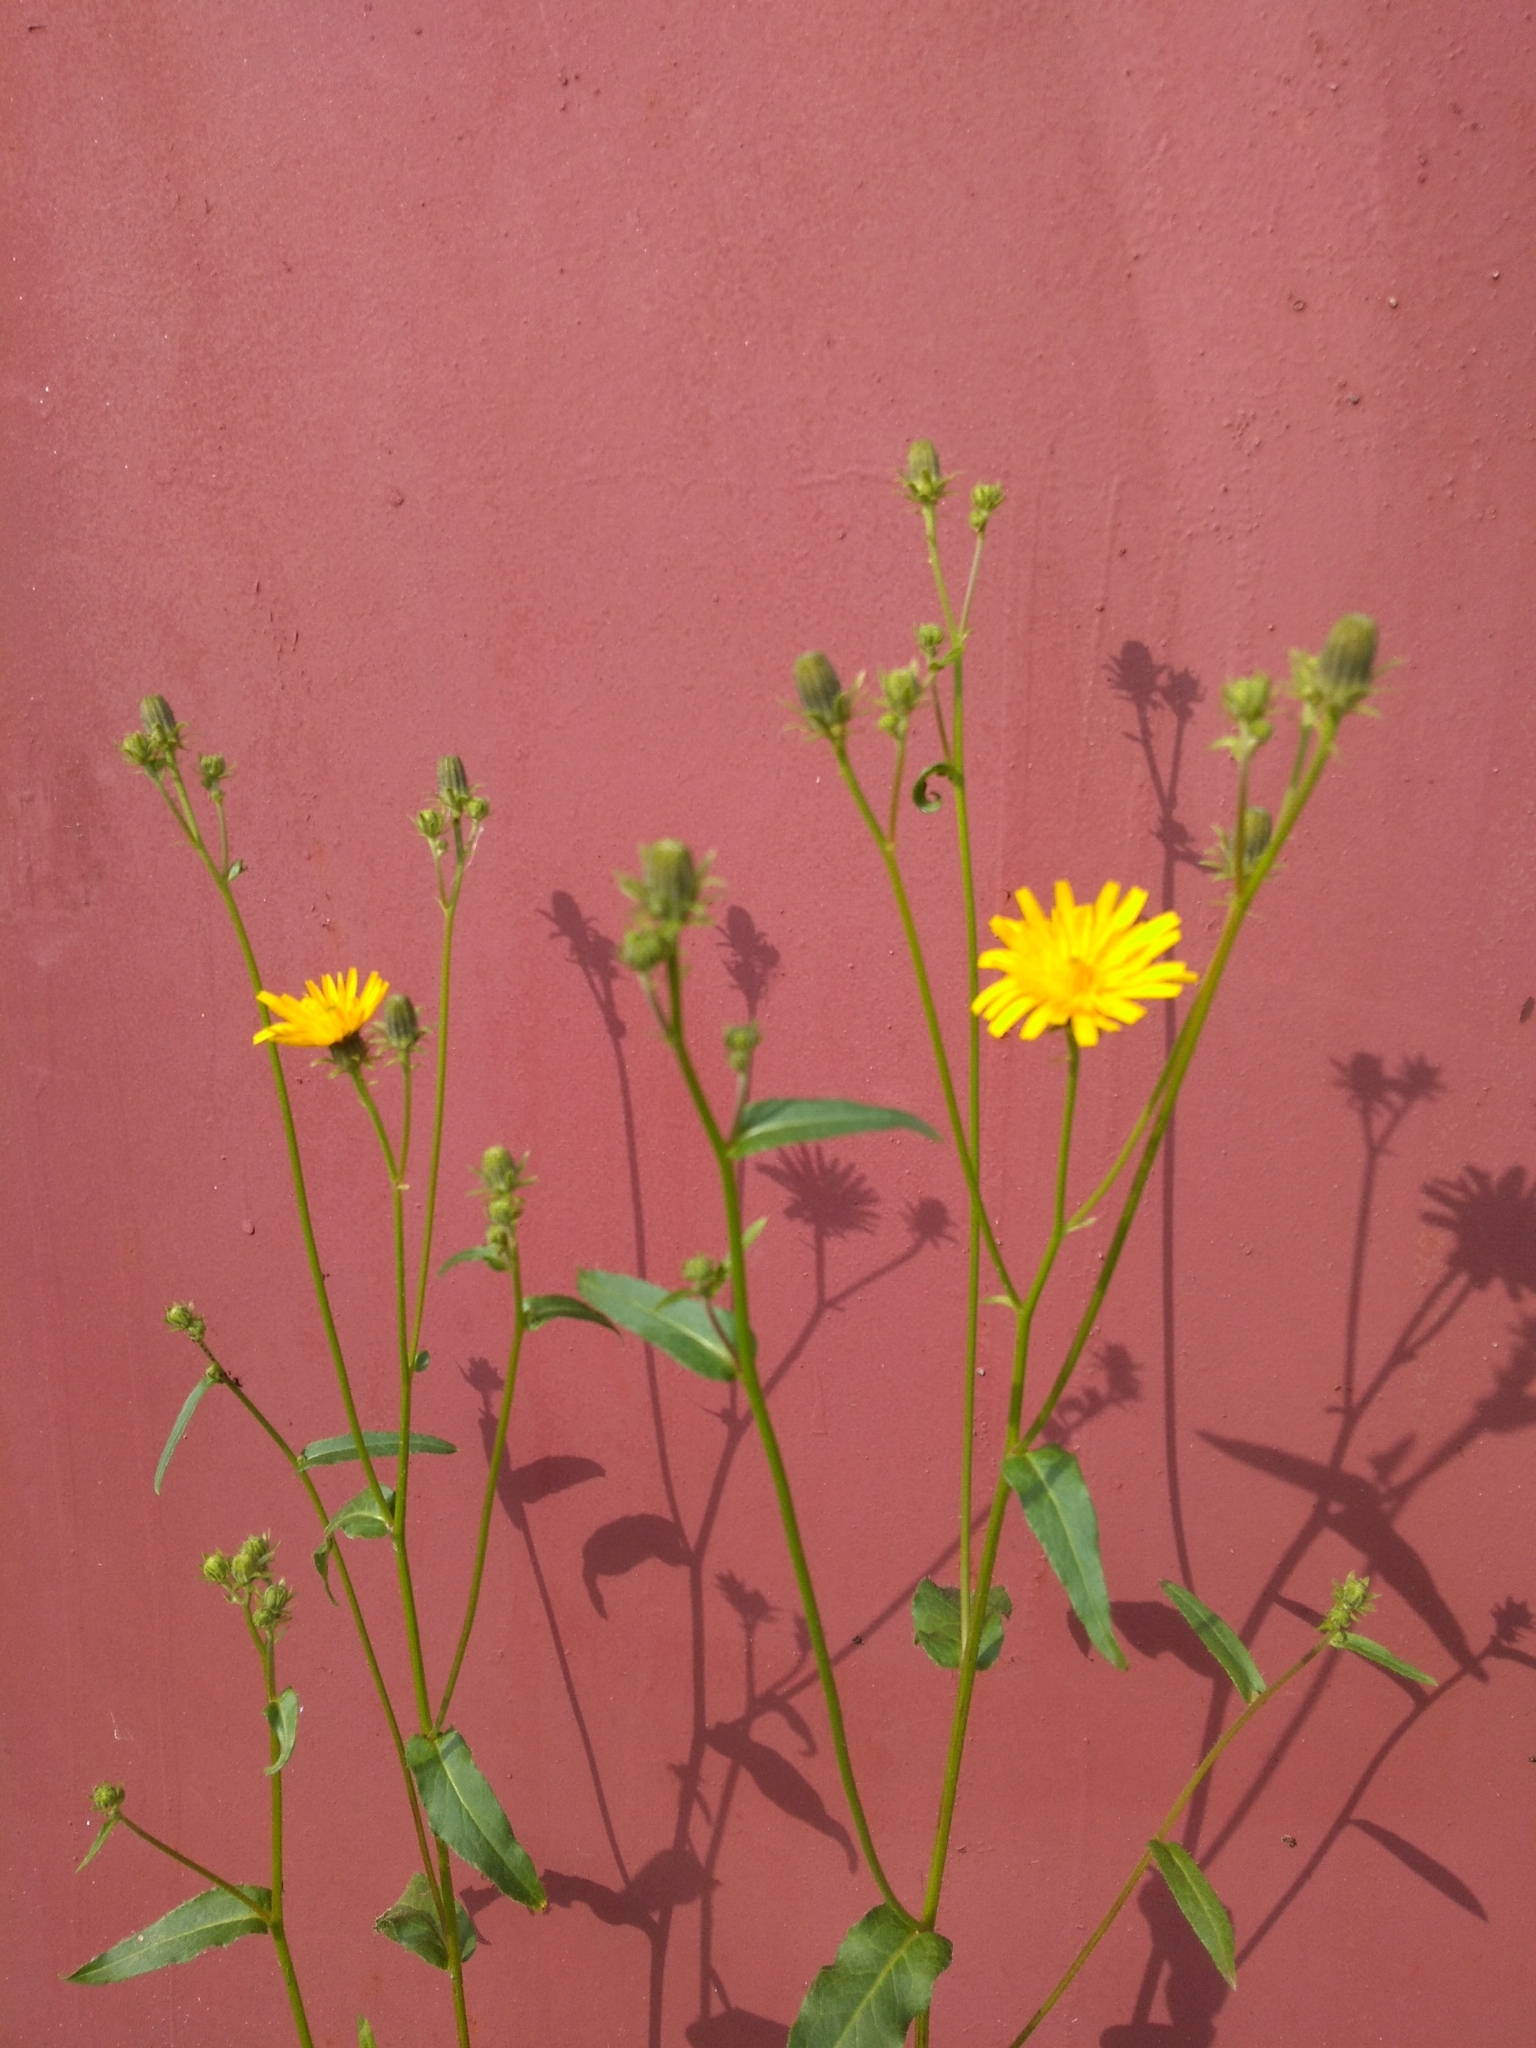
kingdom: Plantae
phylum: Tracheophyta
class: Magnoliopsida
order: Asterales
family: Asteraceae
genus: Picris
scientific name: Picris hieracioides
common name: Hawkweed oxtongue
